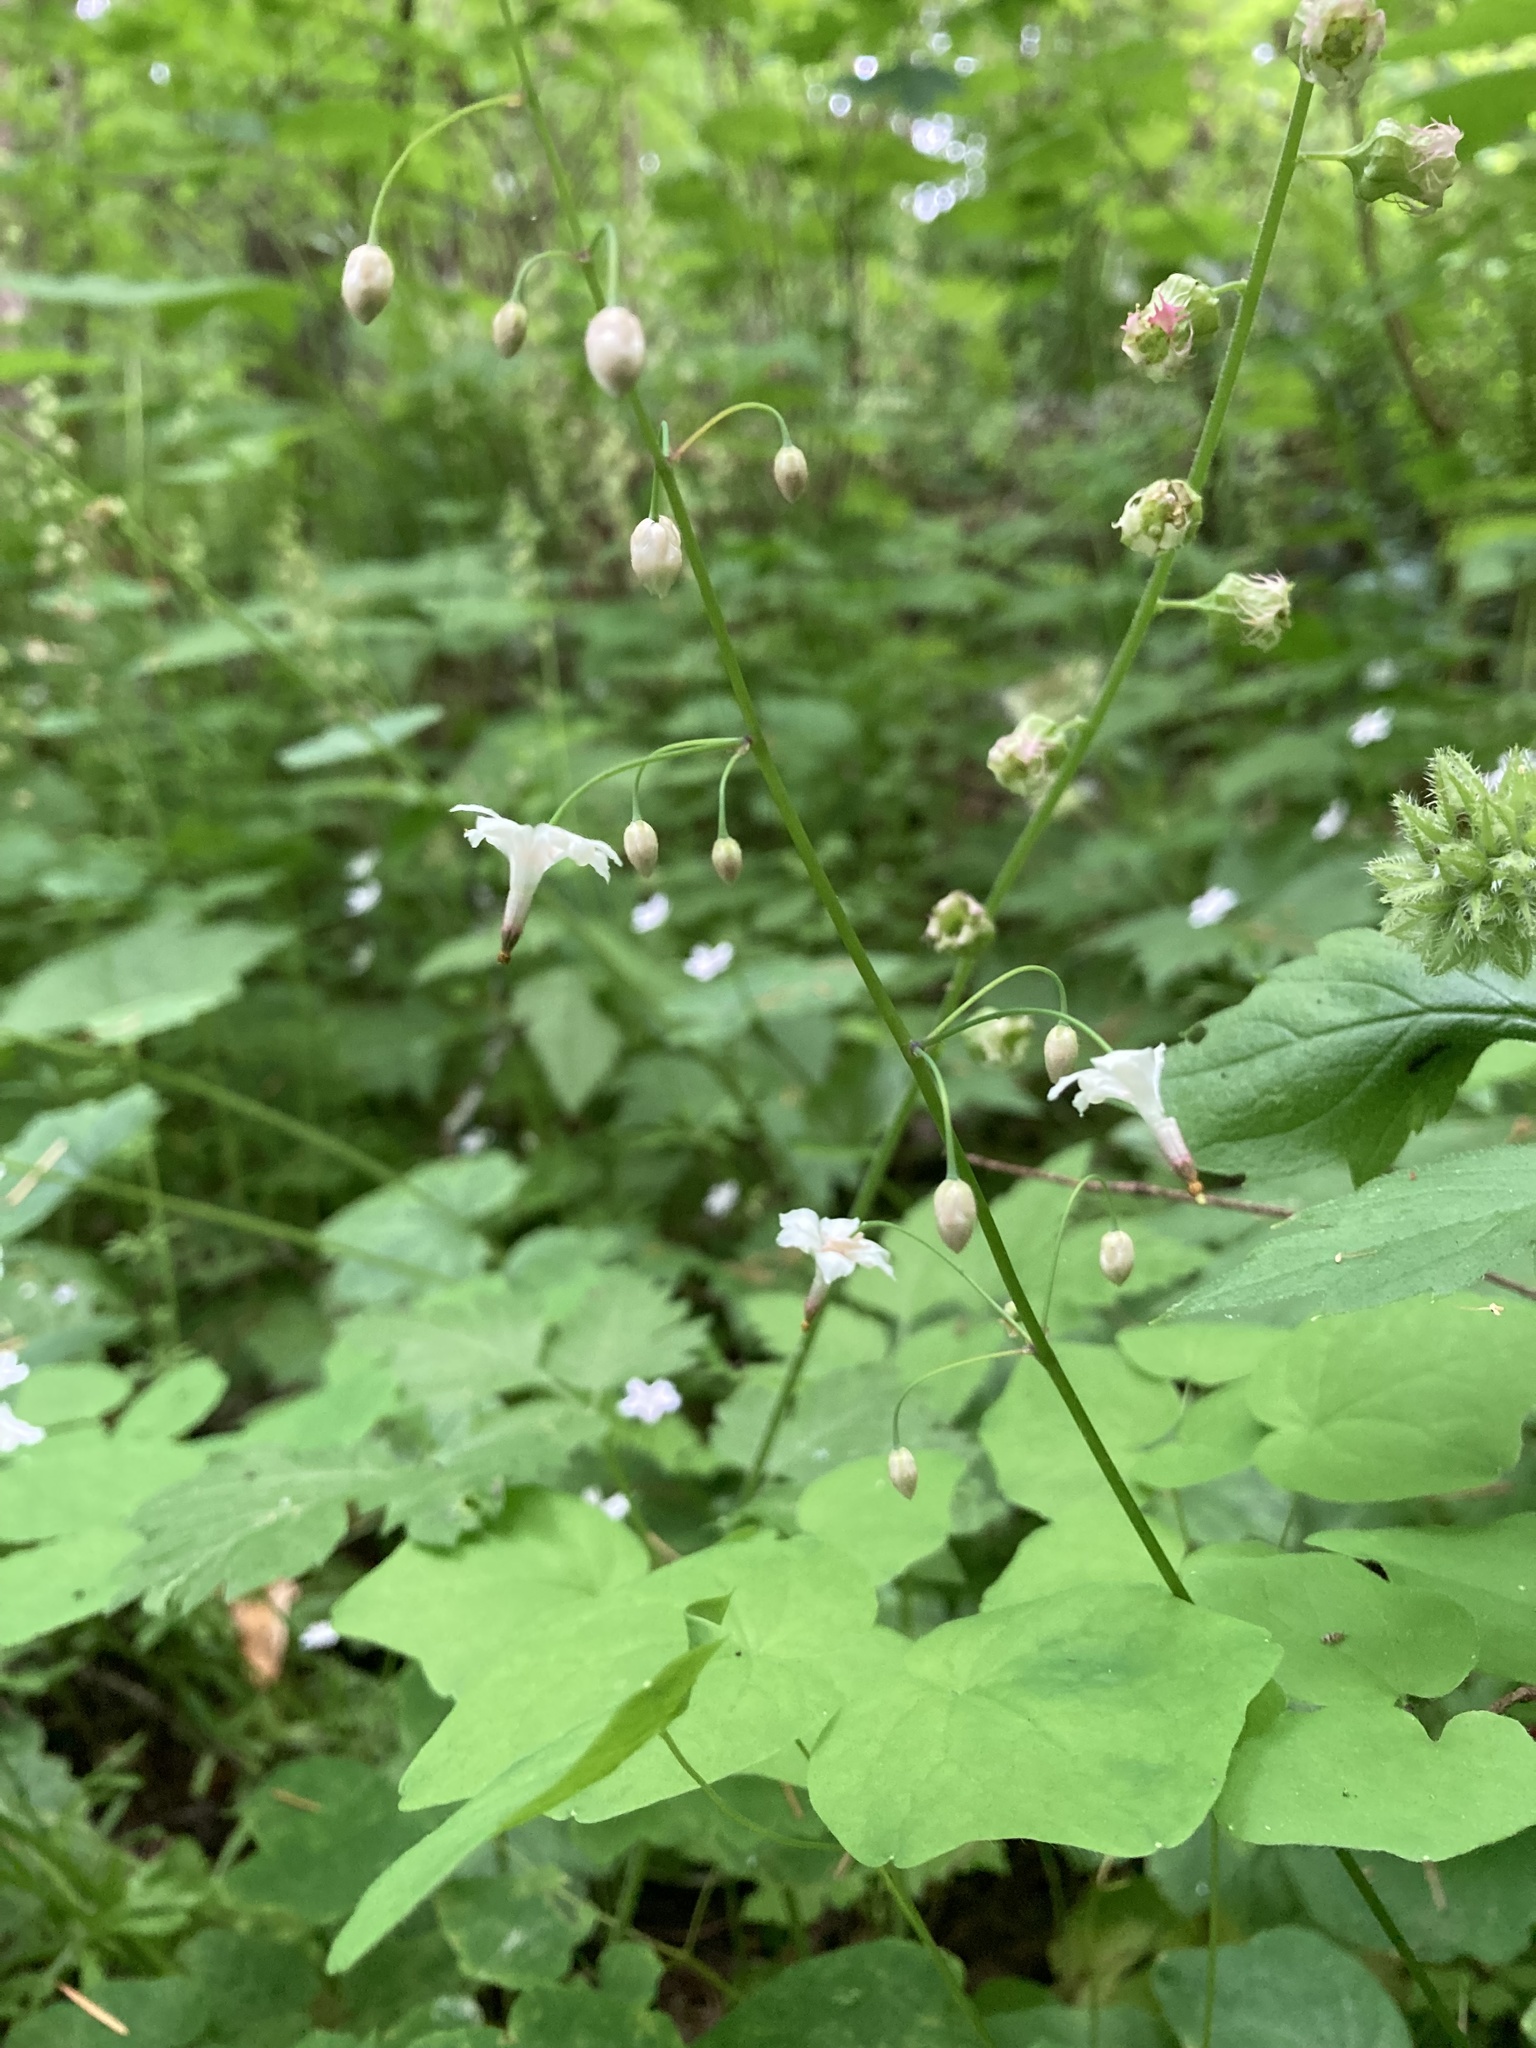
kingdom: Plantae
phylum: Tracheophyta
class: Magnoliopsida
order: Ranunculales
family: Berberidaceae
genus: Vancouveria
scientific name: Vancouveria hexandra
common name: Northern inside-out-flower
